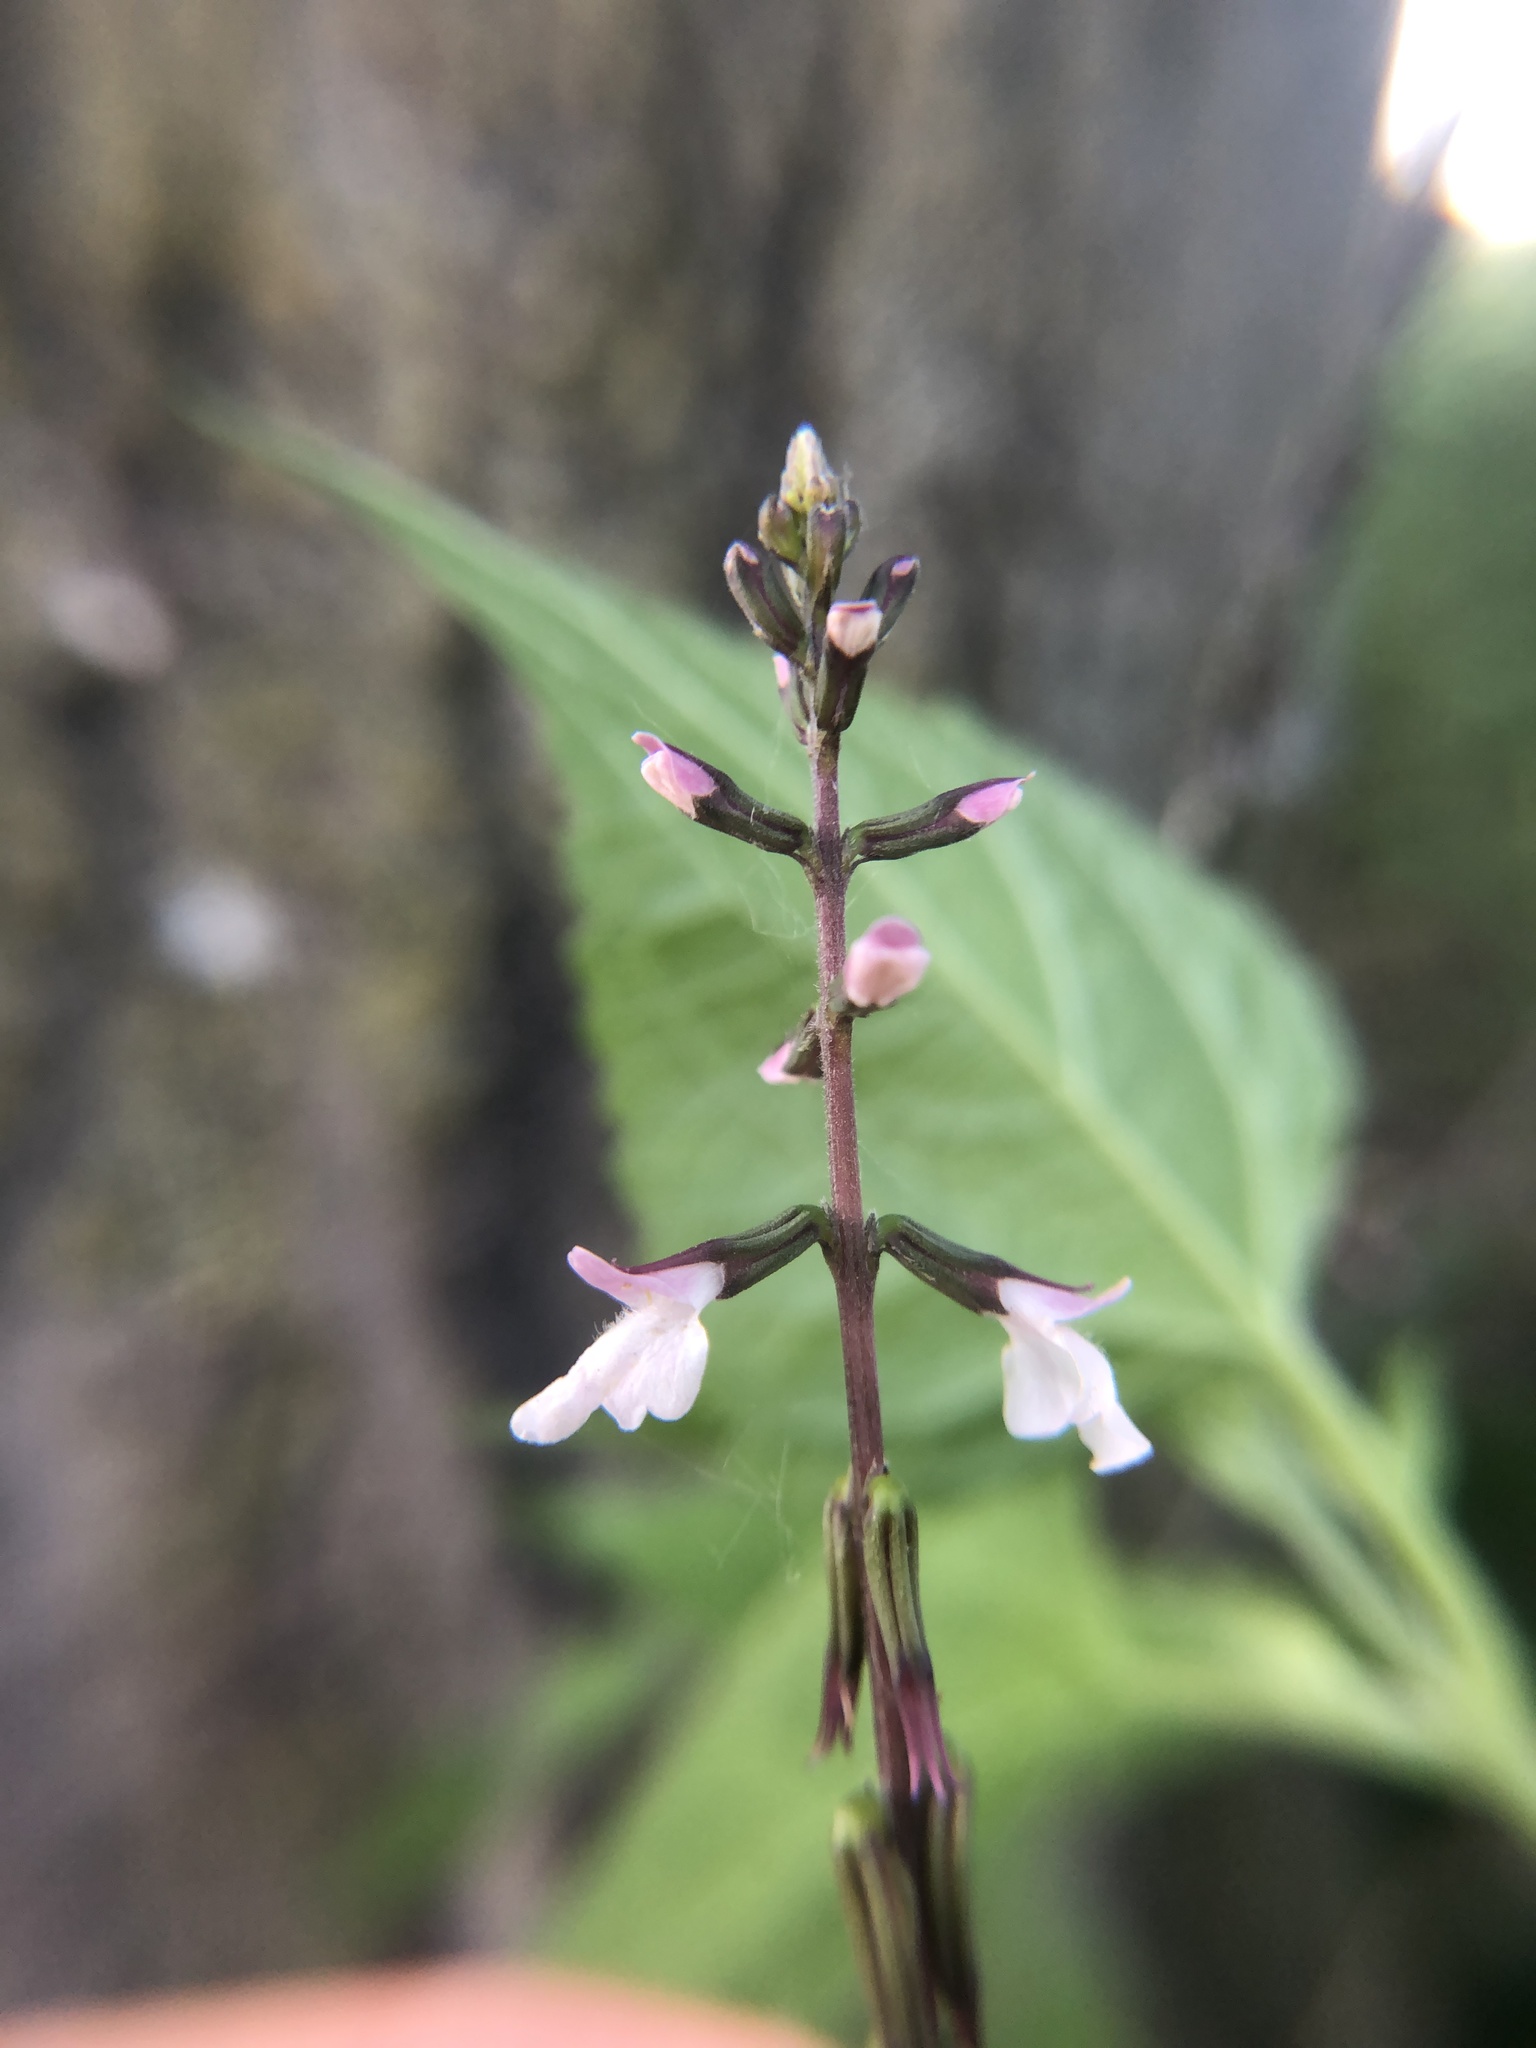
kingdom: Plantae
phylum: Tracheophyta
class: Magnoliopsida
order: Lamiales
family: Phrymaceae
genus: Phryma
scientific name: Phryma leptostachya
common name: American lopseed
